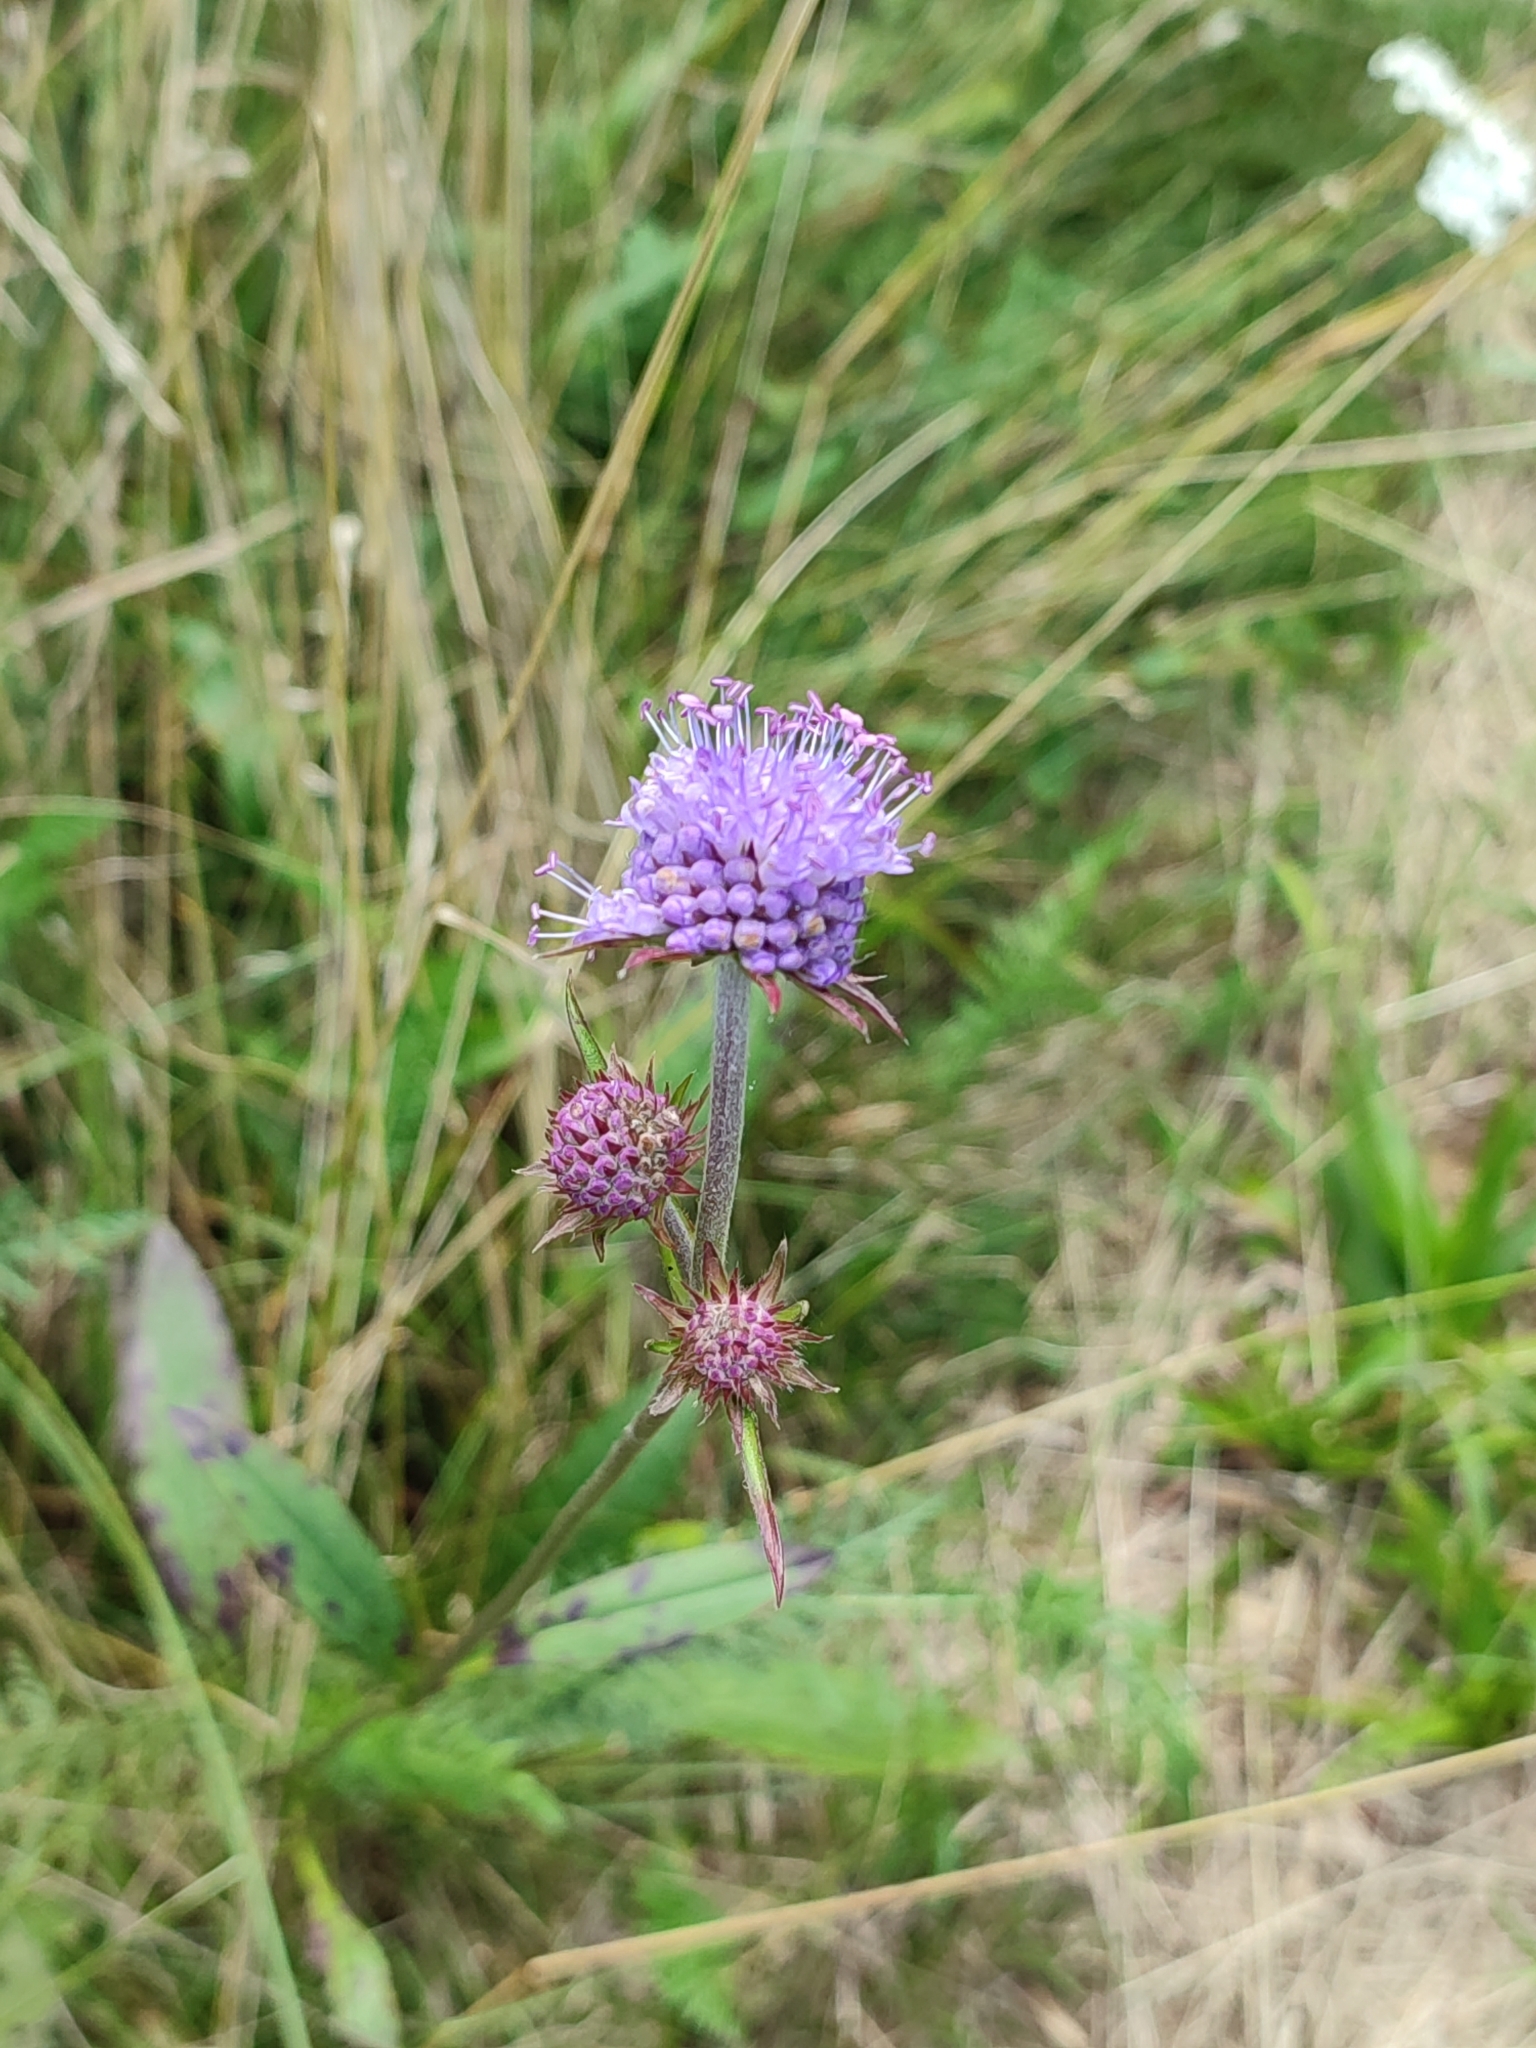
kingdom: Plantae
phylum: Tracheophyta
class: Magnoliopsida
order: Dipsacales
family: Caprifoliaceae
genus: Succisa
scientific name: Succisa pratensis
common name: Devil's-bit
